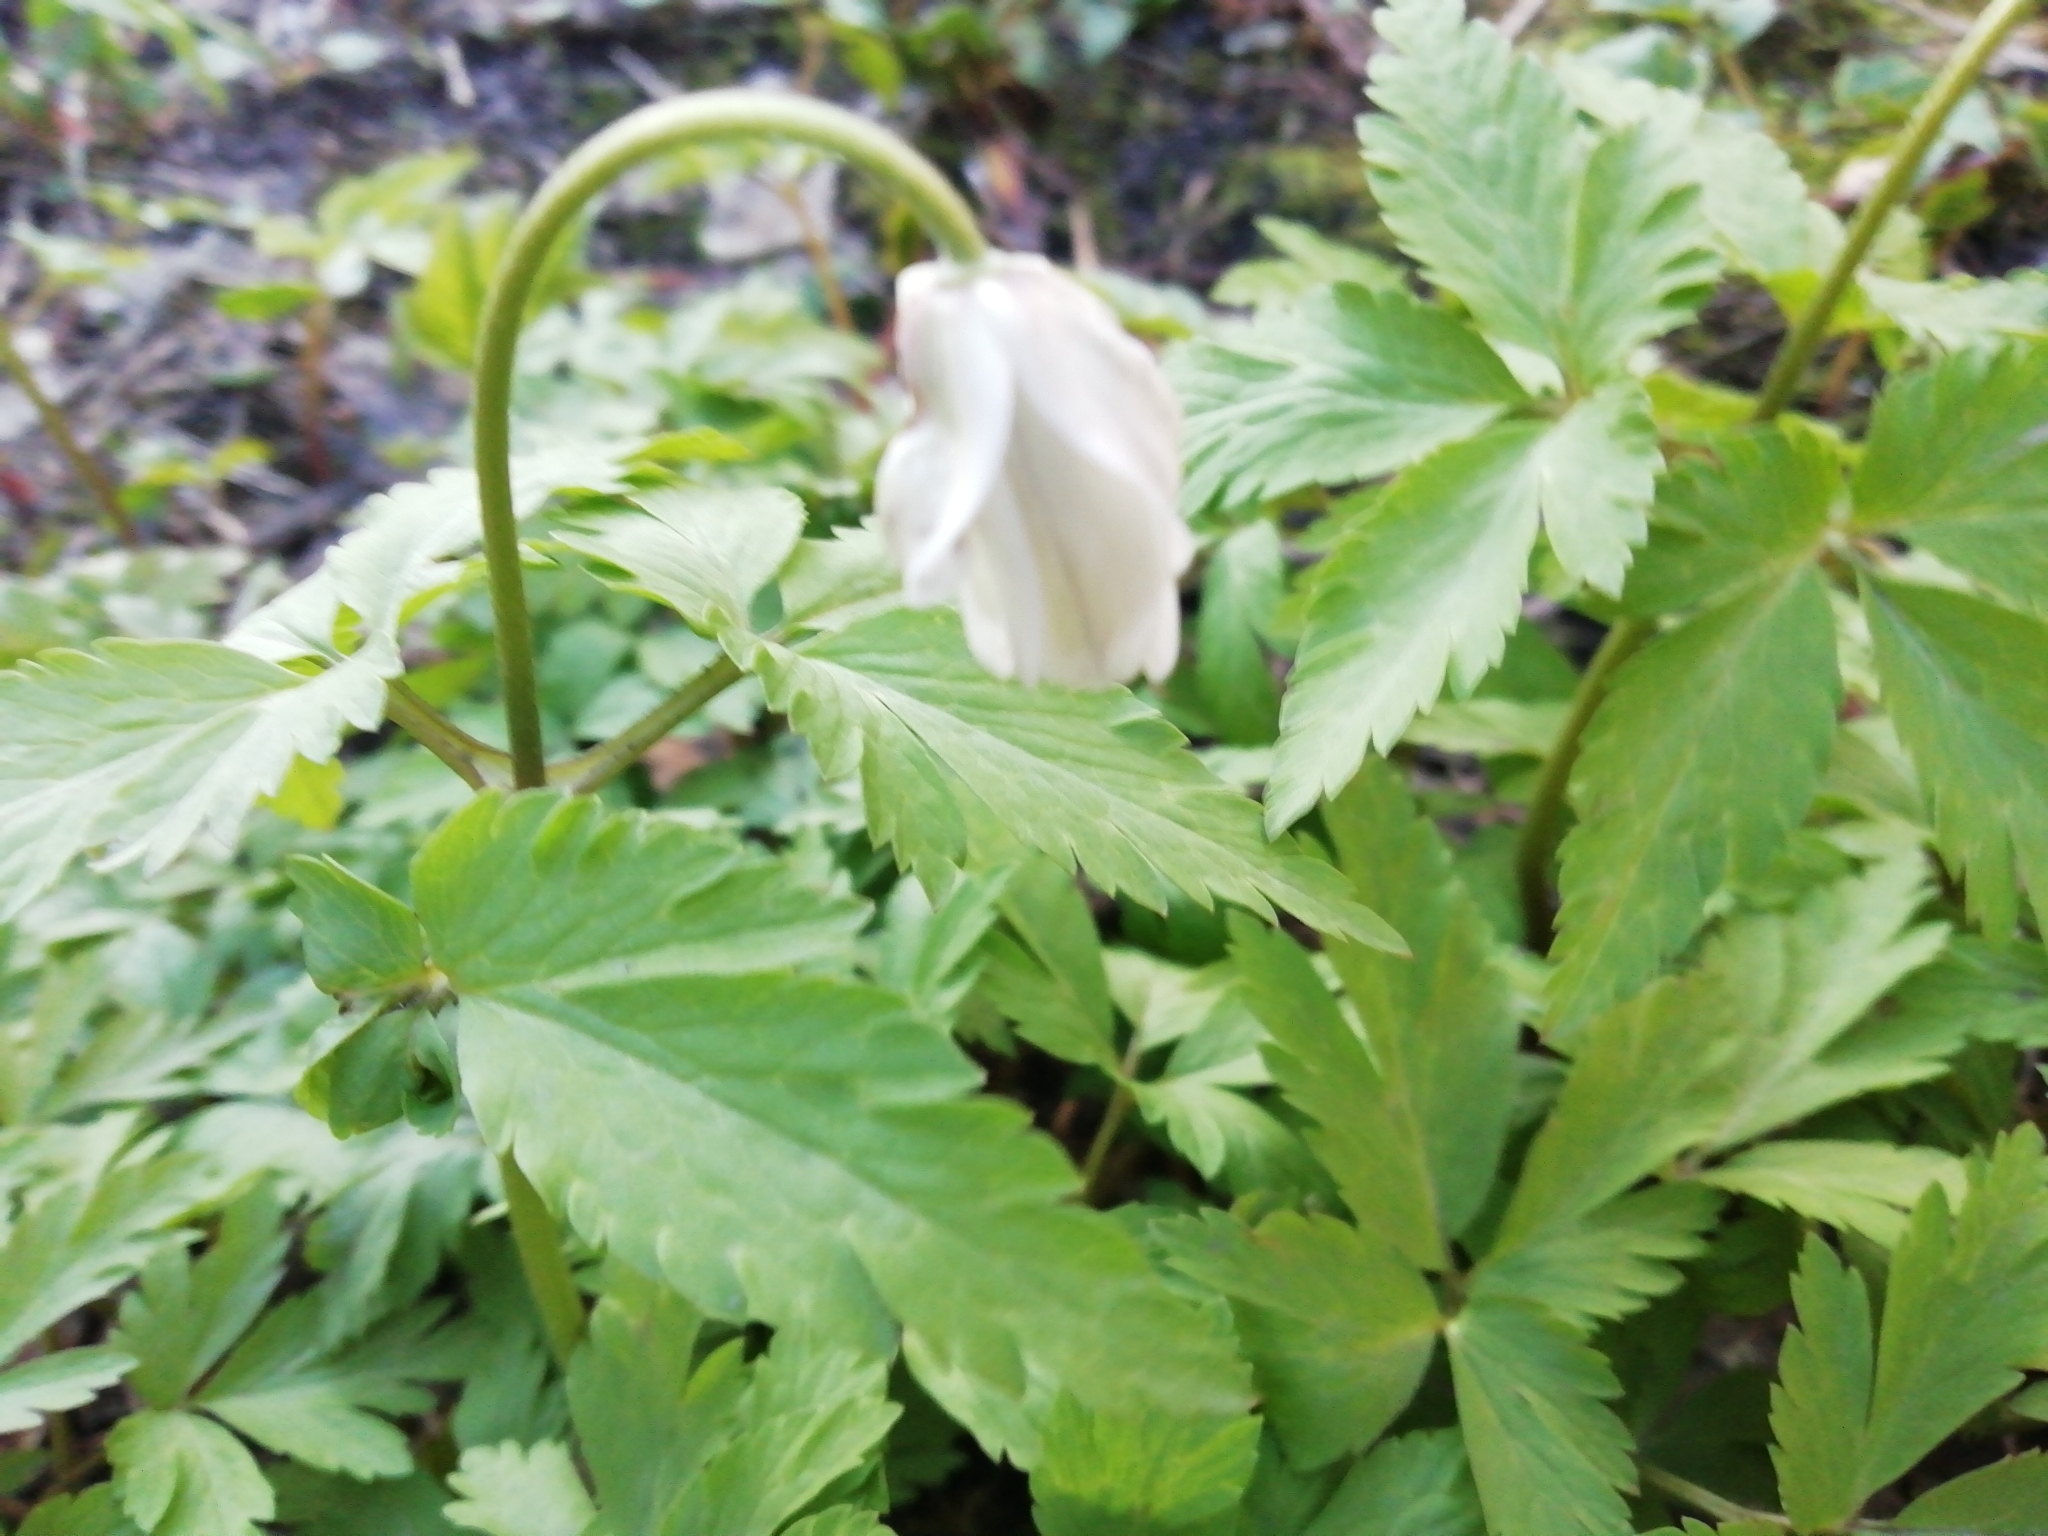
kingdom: Plantae
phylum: Tracheophyta
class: Magnoliopsida
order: Ranunculales
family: Ranunculaceae
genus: Anemone
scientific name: Anemone altaica
